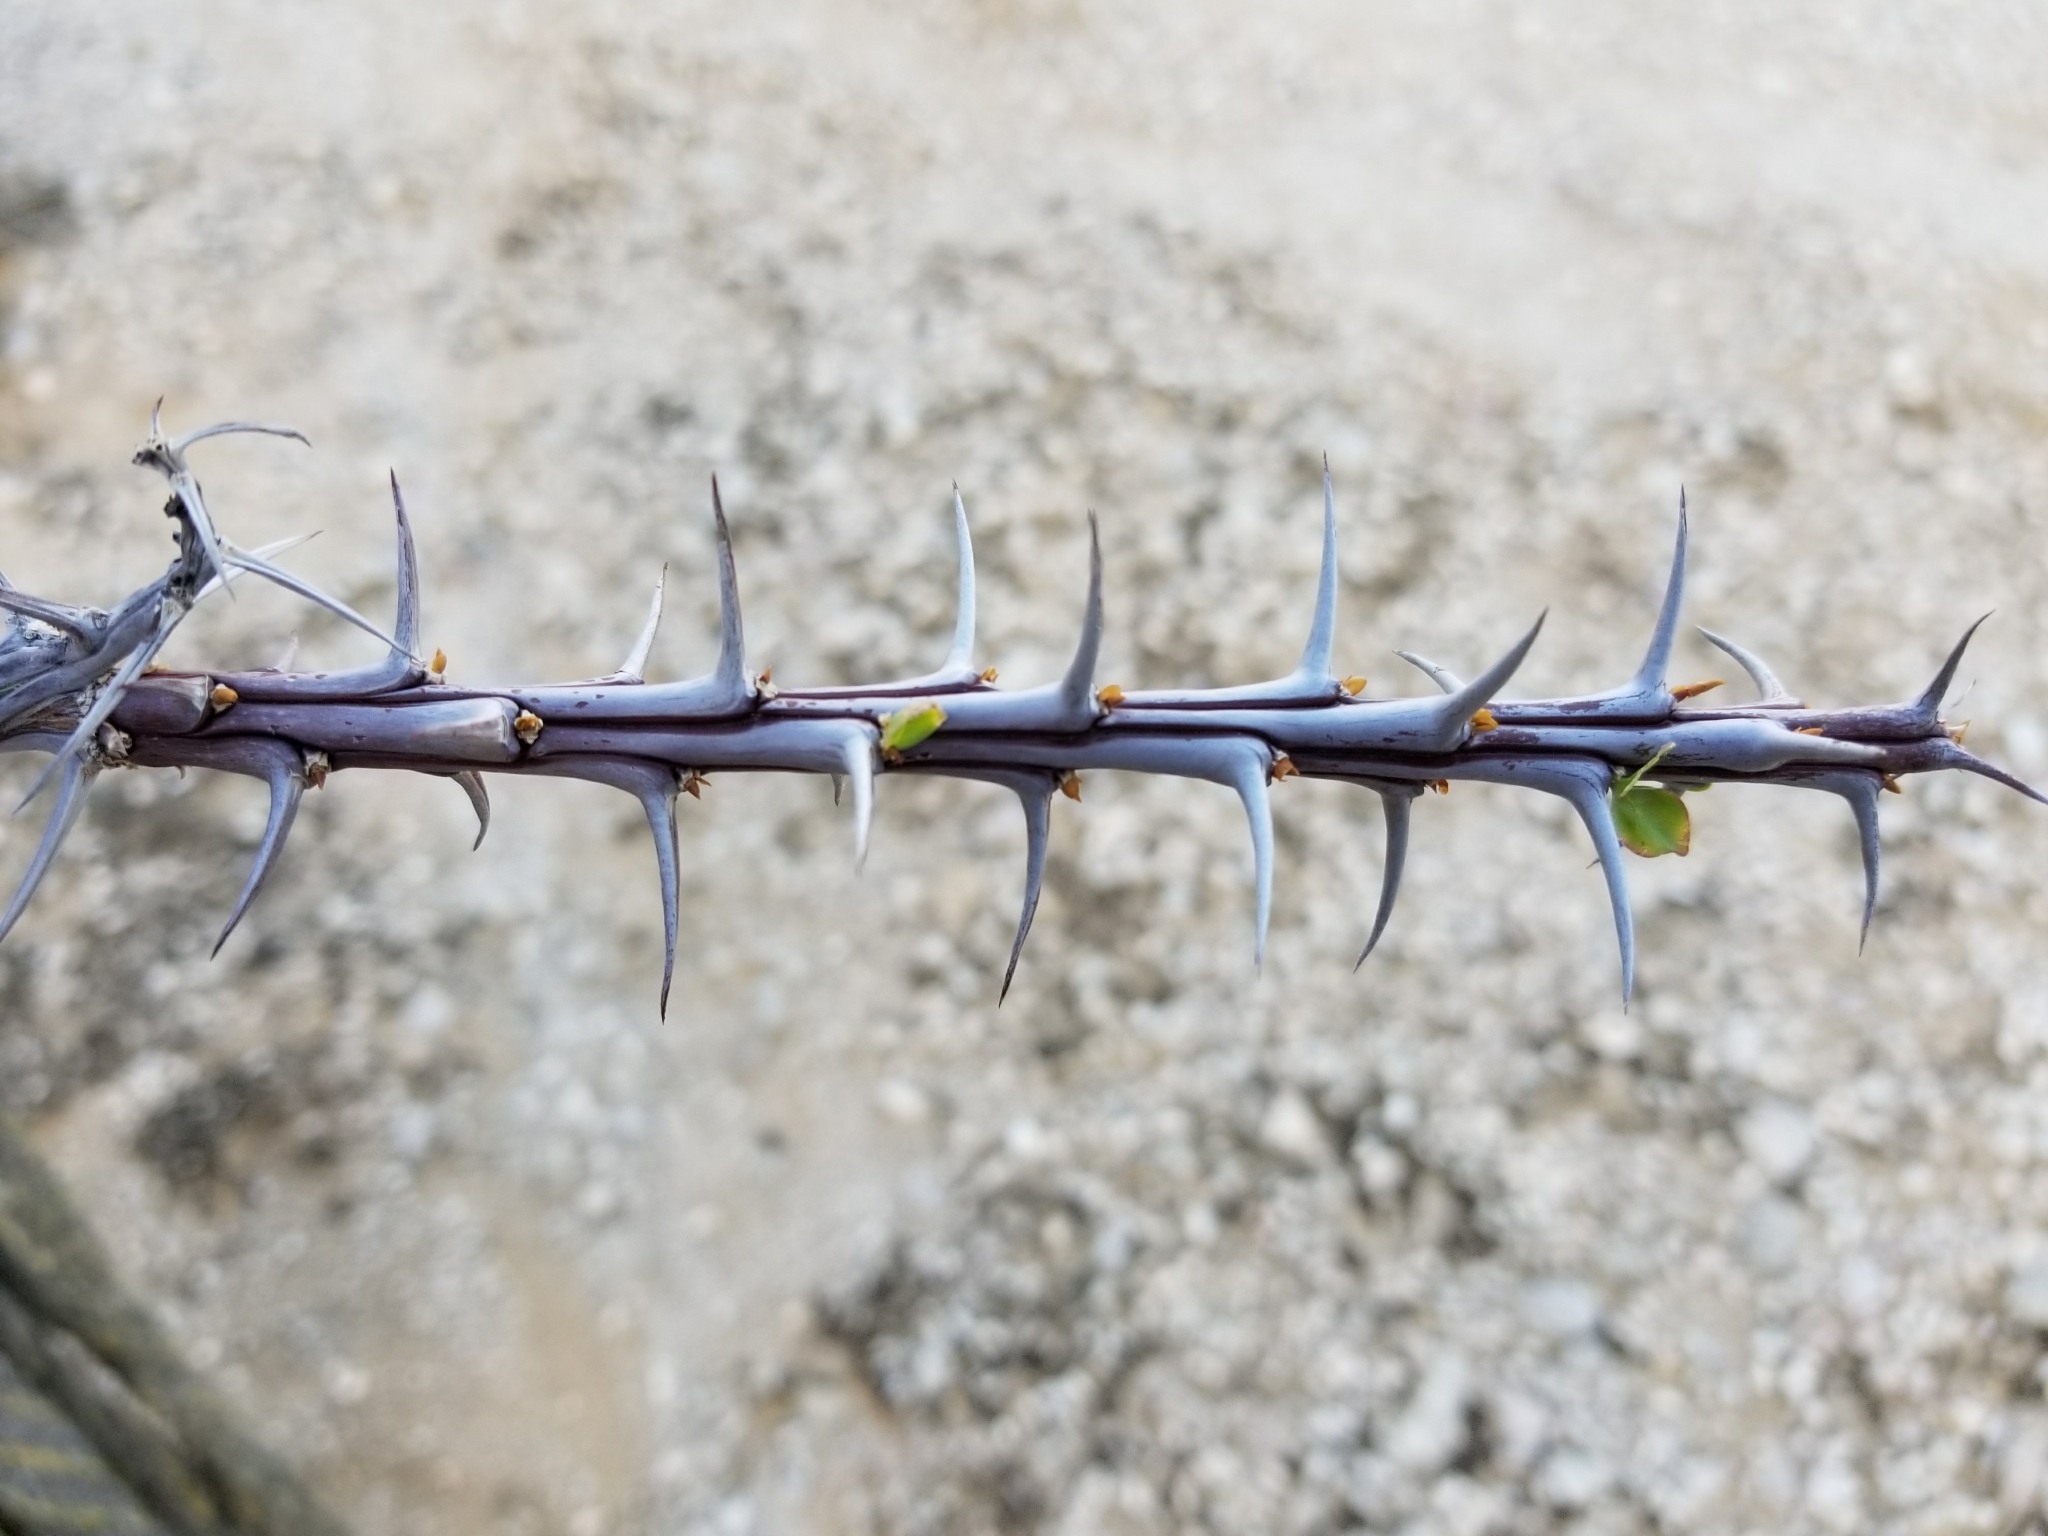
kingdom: Plantae
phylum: Tracheophyta
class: Magnoliopsida
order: Ericales
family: Fouquieriaceae
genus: Fouquieria
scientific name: Fouquieria splendens
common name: Vine-cactus
